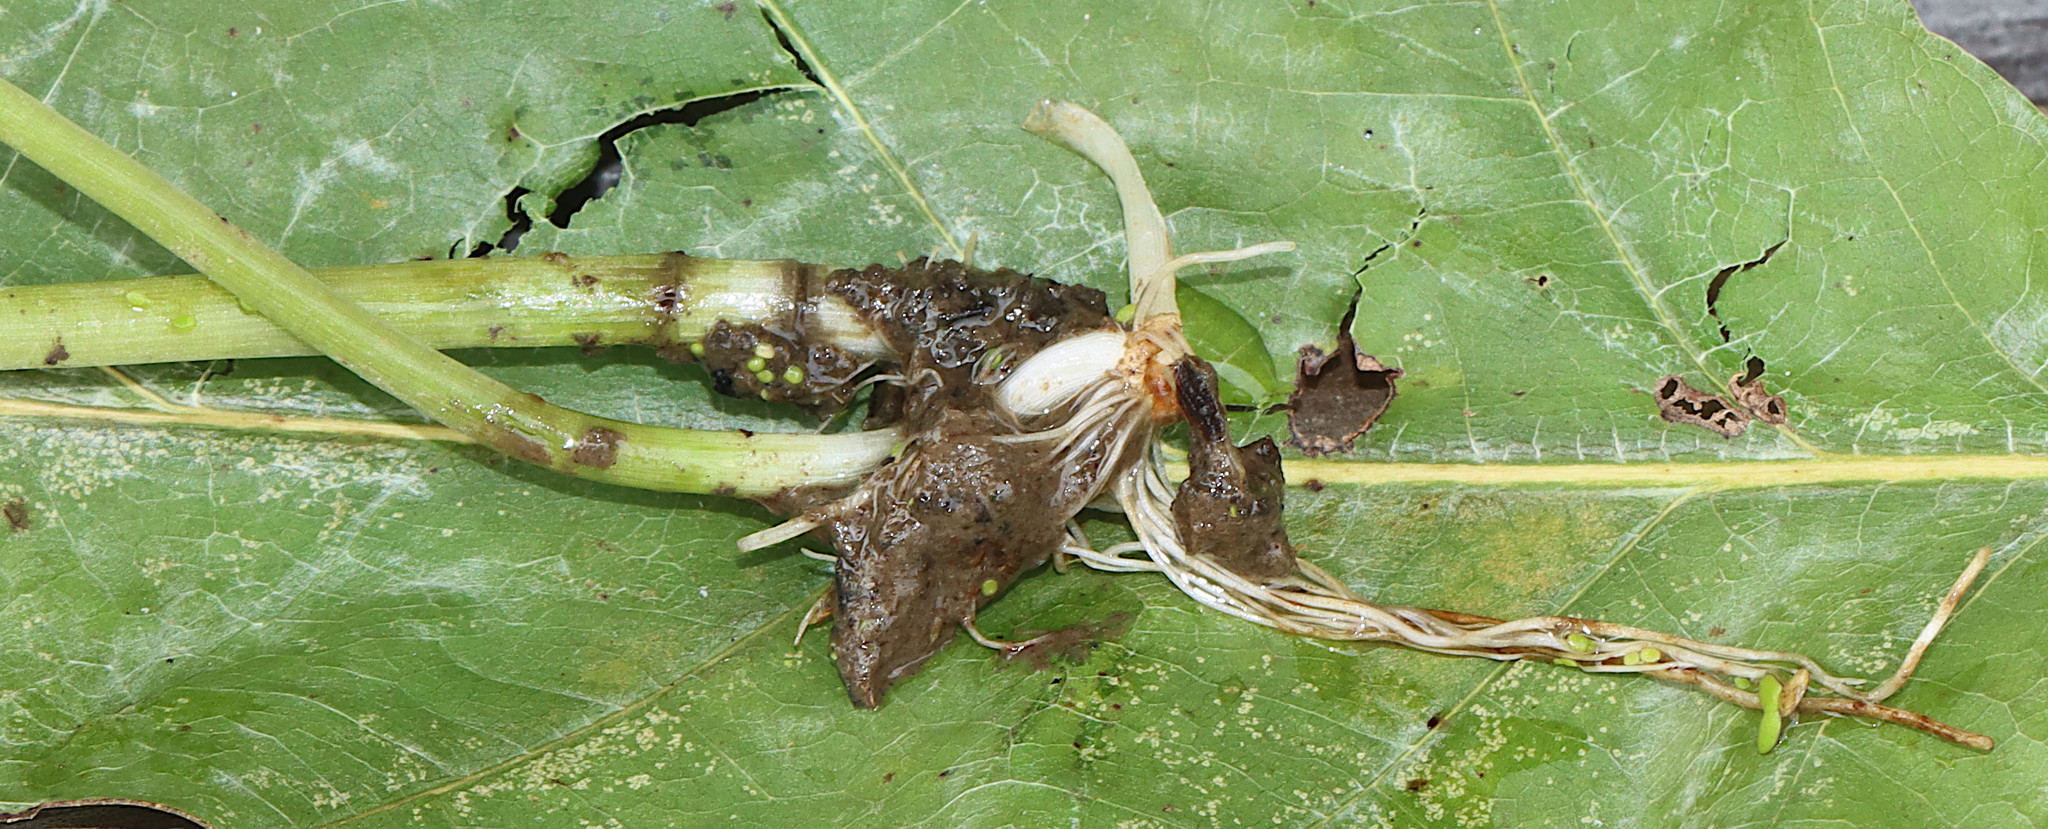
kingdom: Plantae
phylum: Tracheophyta
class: Magnoliopsida
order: Apiales
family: Araliaceae
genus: Hydrocotyle
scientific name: Hydrocotyle ranunculoides
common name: Floating pennywort
